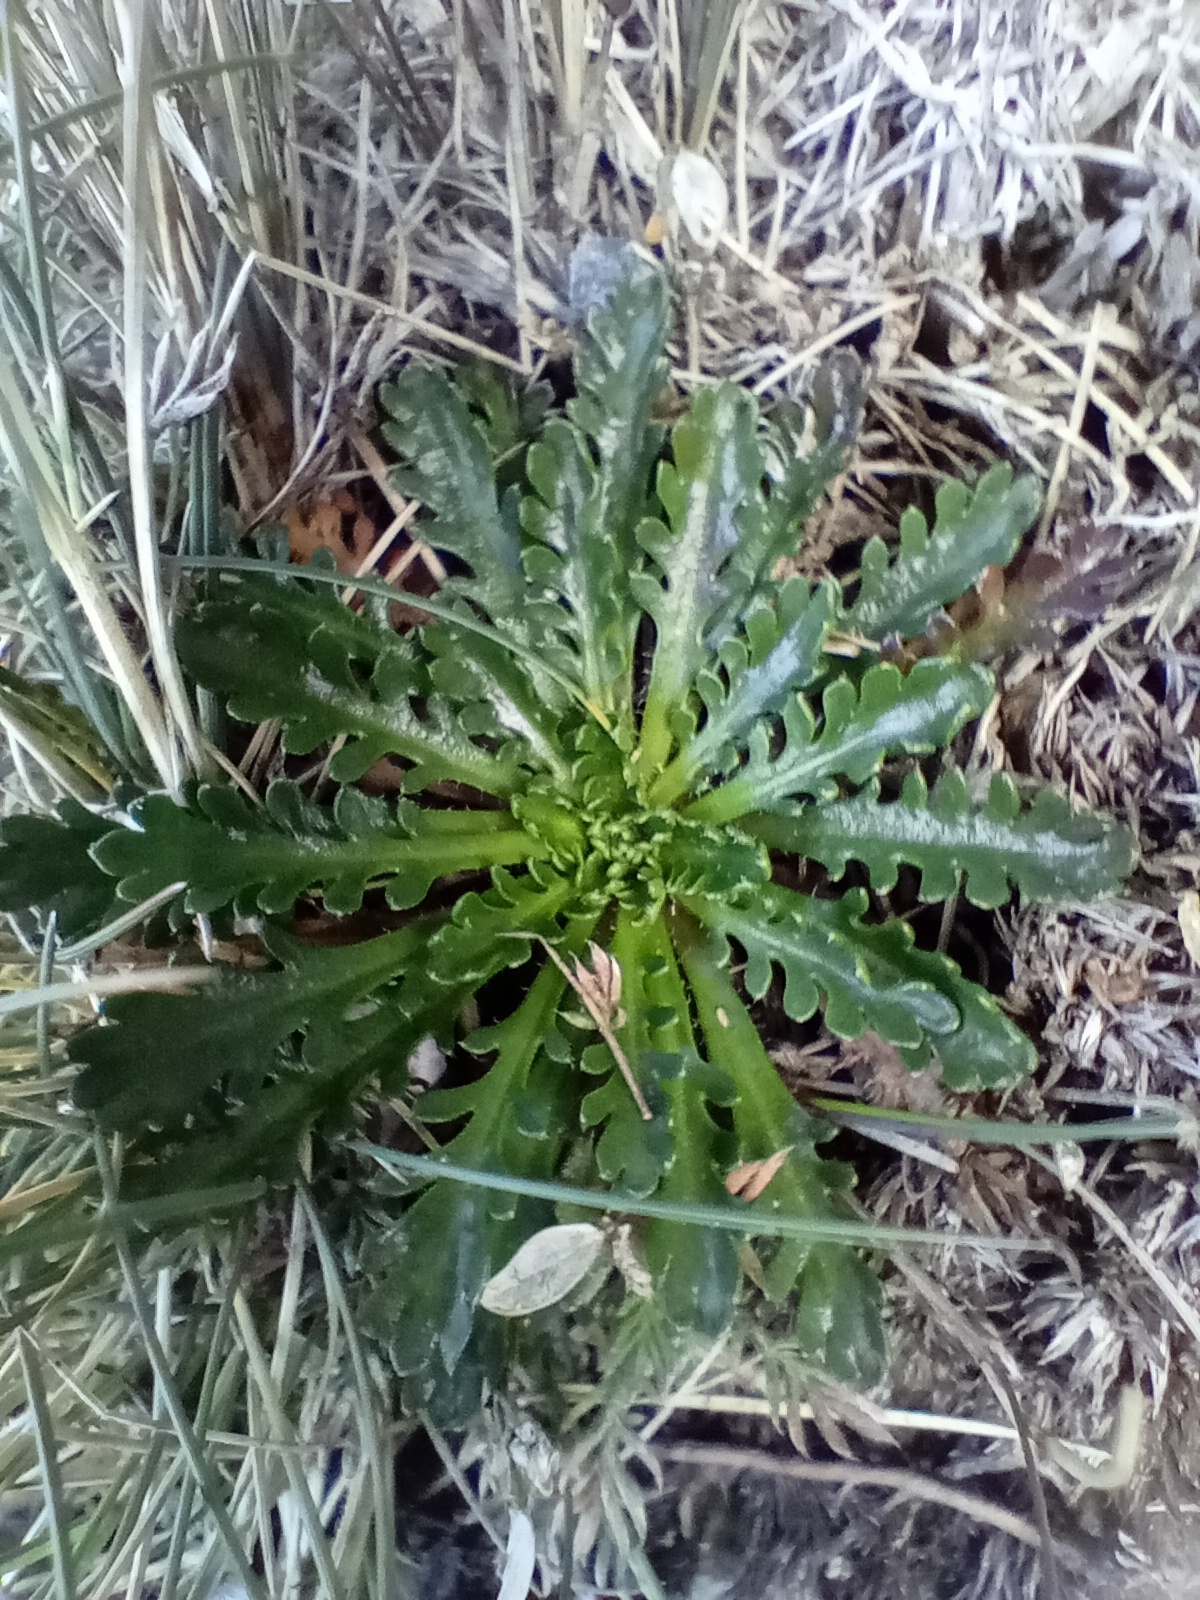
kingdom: Plantae
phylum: Tracheophyta
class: Magnoliopsida
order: Brassicales
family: Brassicaceae
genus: Pachycladon
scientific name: Pachycladon novae-zelandiae
